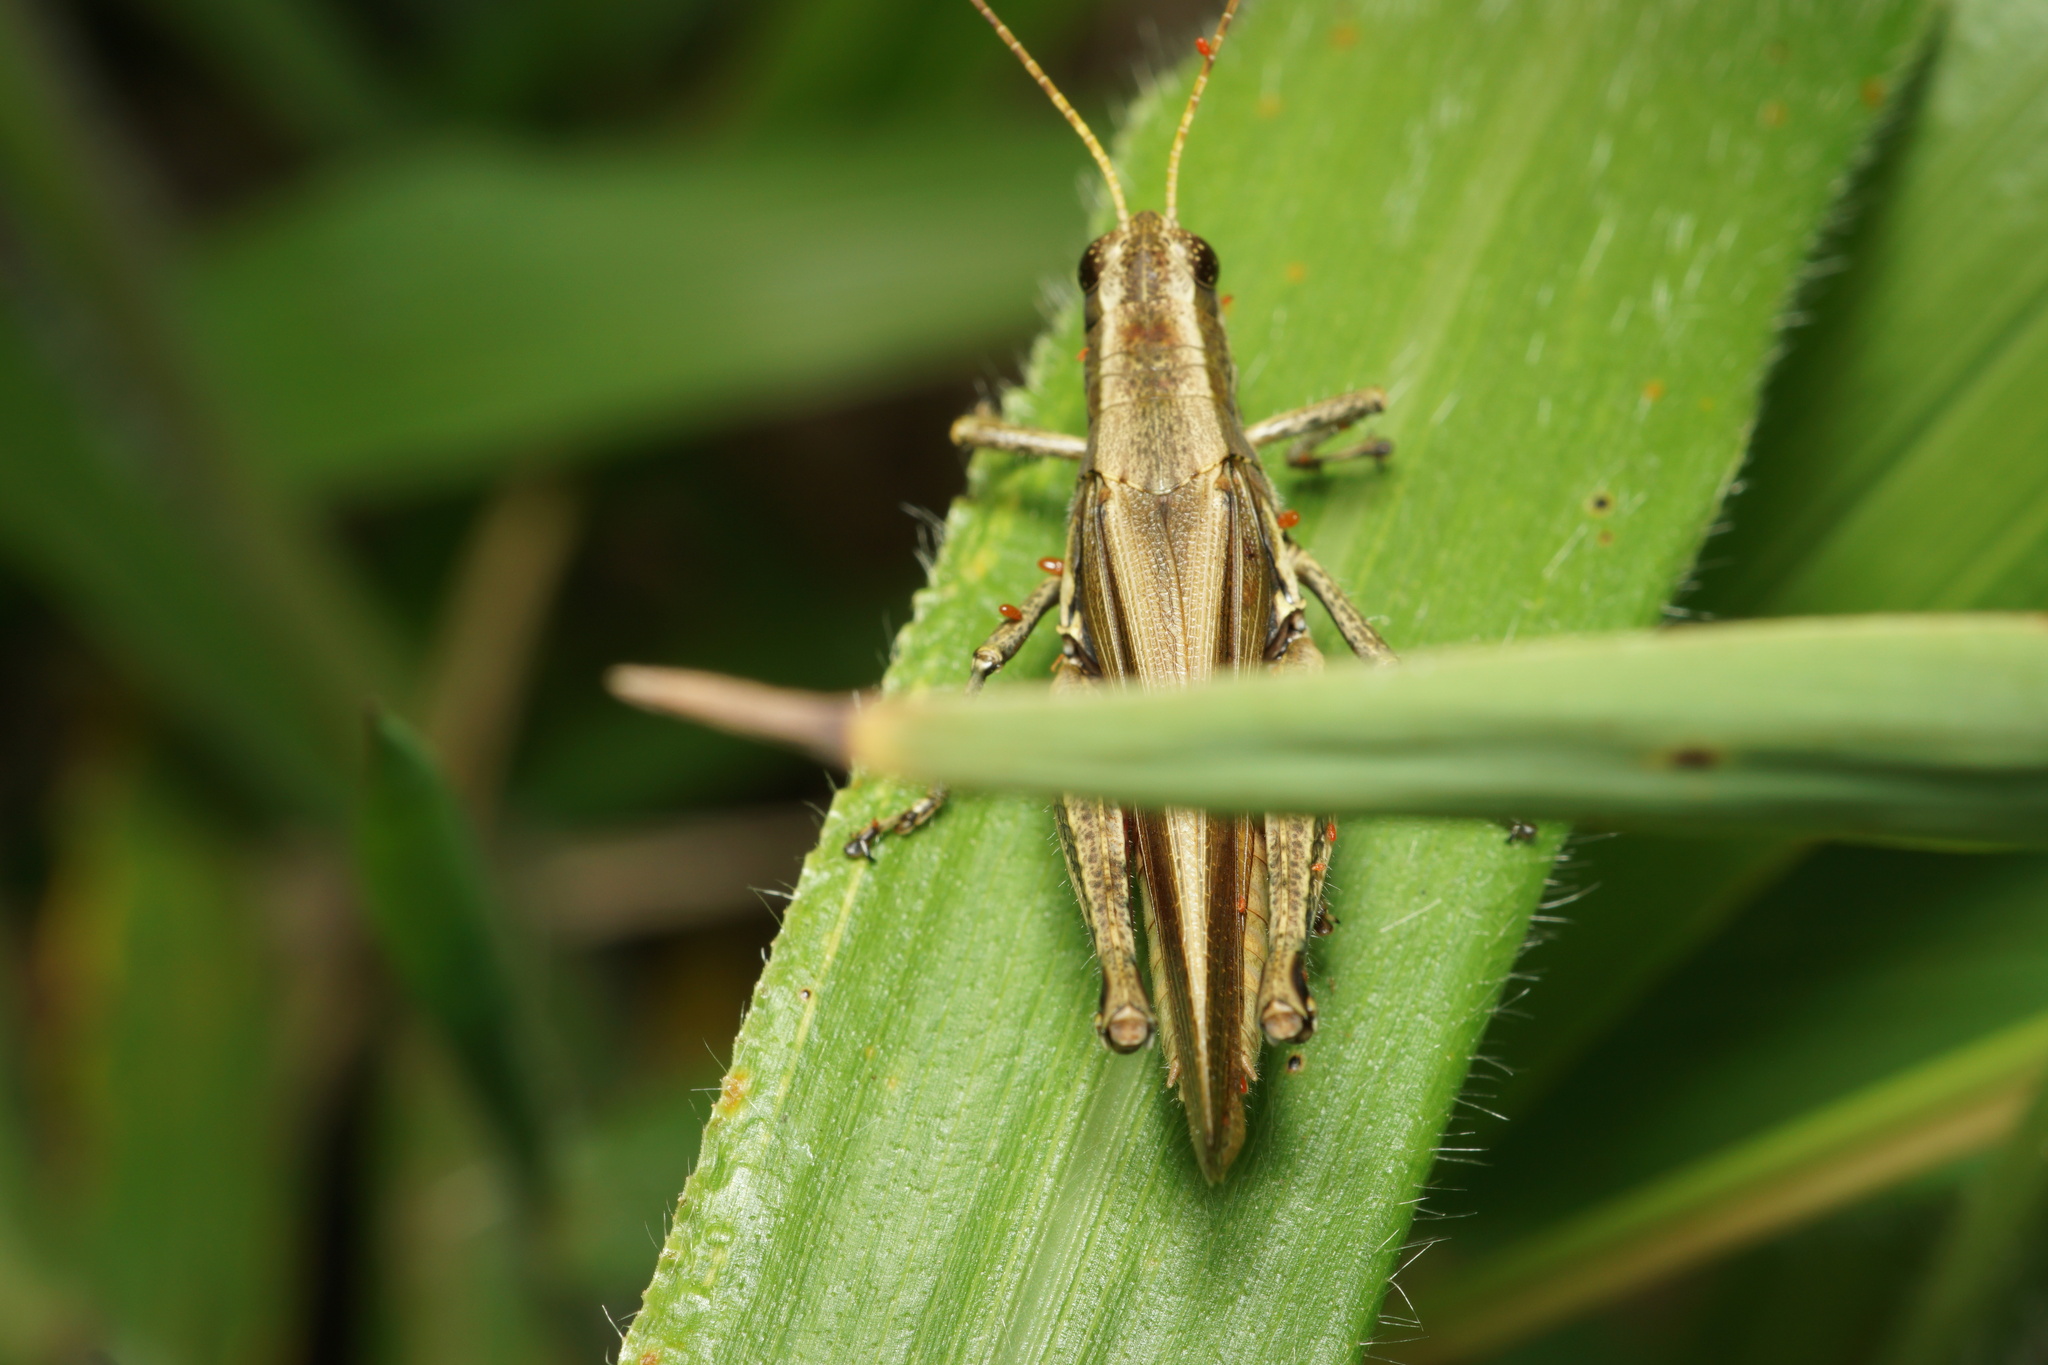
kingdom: Animalia
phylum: Arthropoda
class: Insecta
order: Orthoptera
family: Acrididae
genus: Ronderosia
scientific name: Ronderosia bergii
